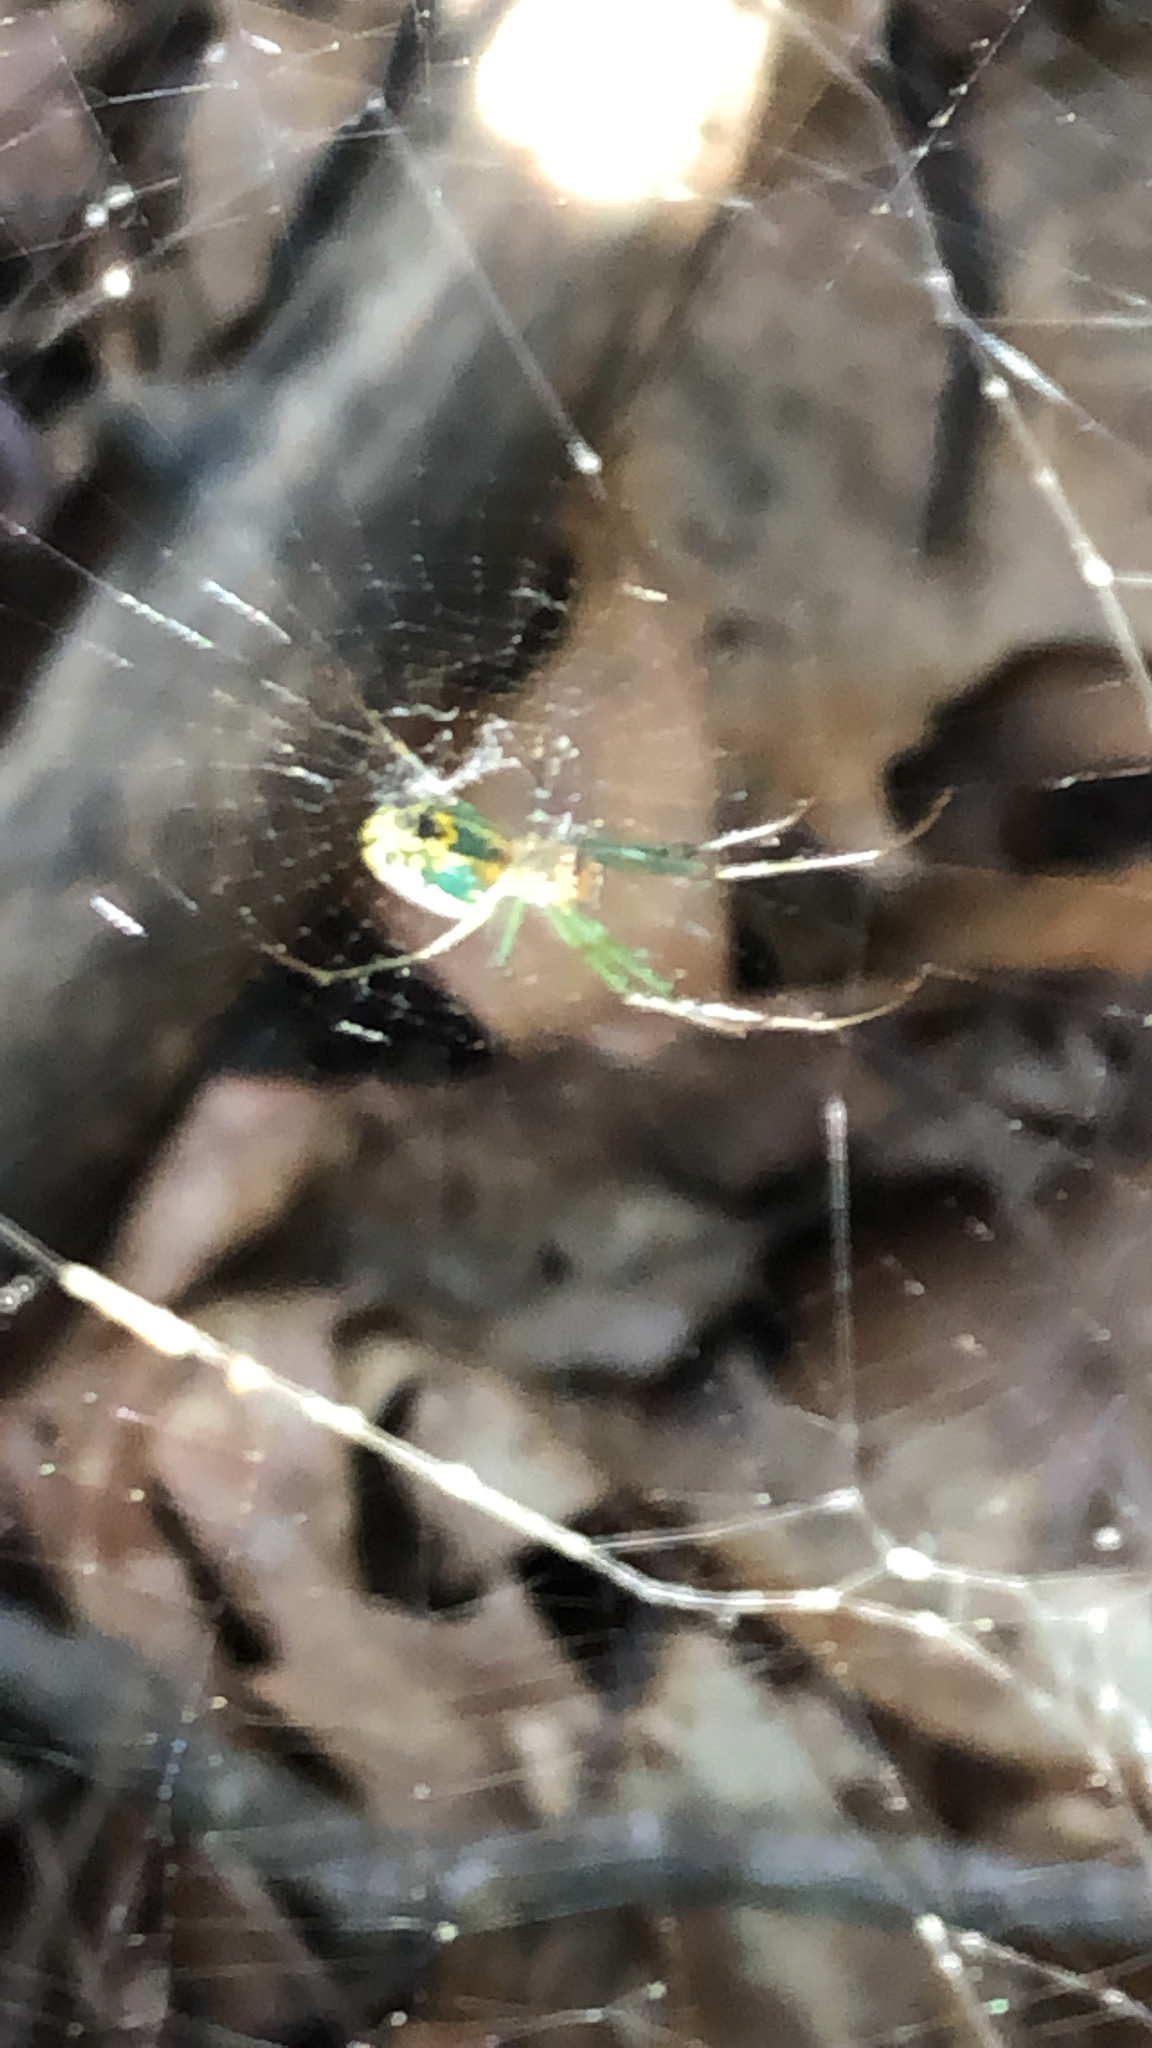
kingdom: Animalia
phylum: Arthropoda
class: Arachnida
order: Araneae
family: Tetragnathidae
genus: Leucauge
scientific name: Leucauge venusta
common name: Longjawed orb weavers
